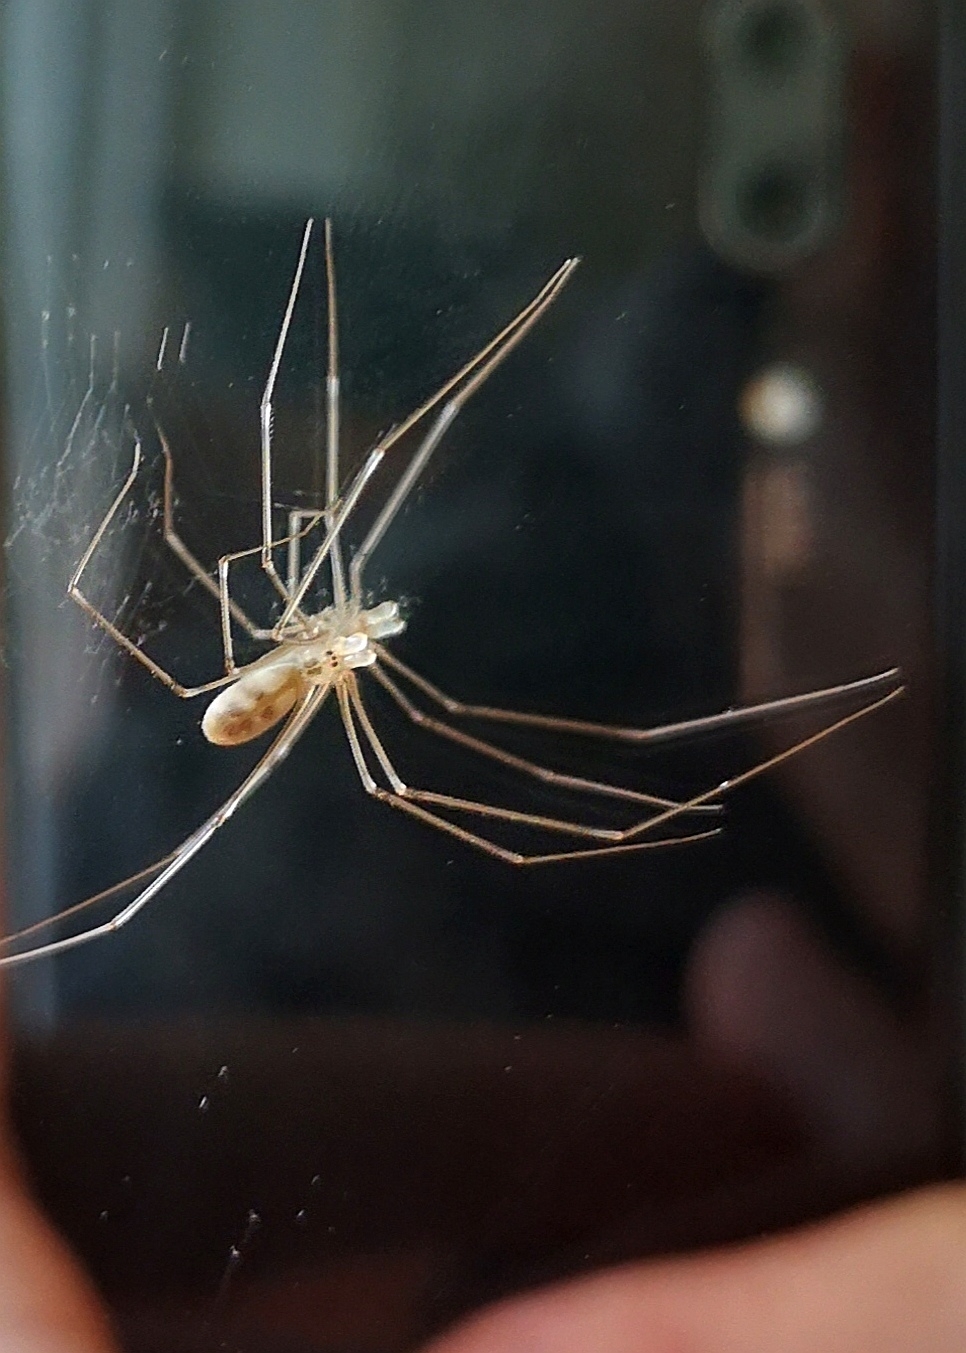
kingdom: Animalia
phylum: Arthropoda
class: Arachnida
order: Araneae
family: Pholcidae
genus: Pholcus
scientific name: Pholcus phalangioides
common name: Longbodied cellar spider
